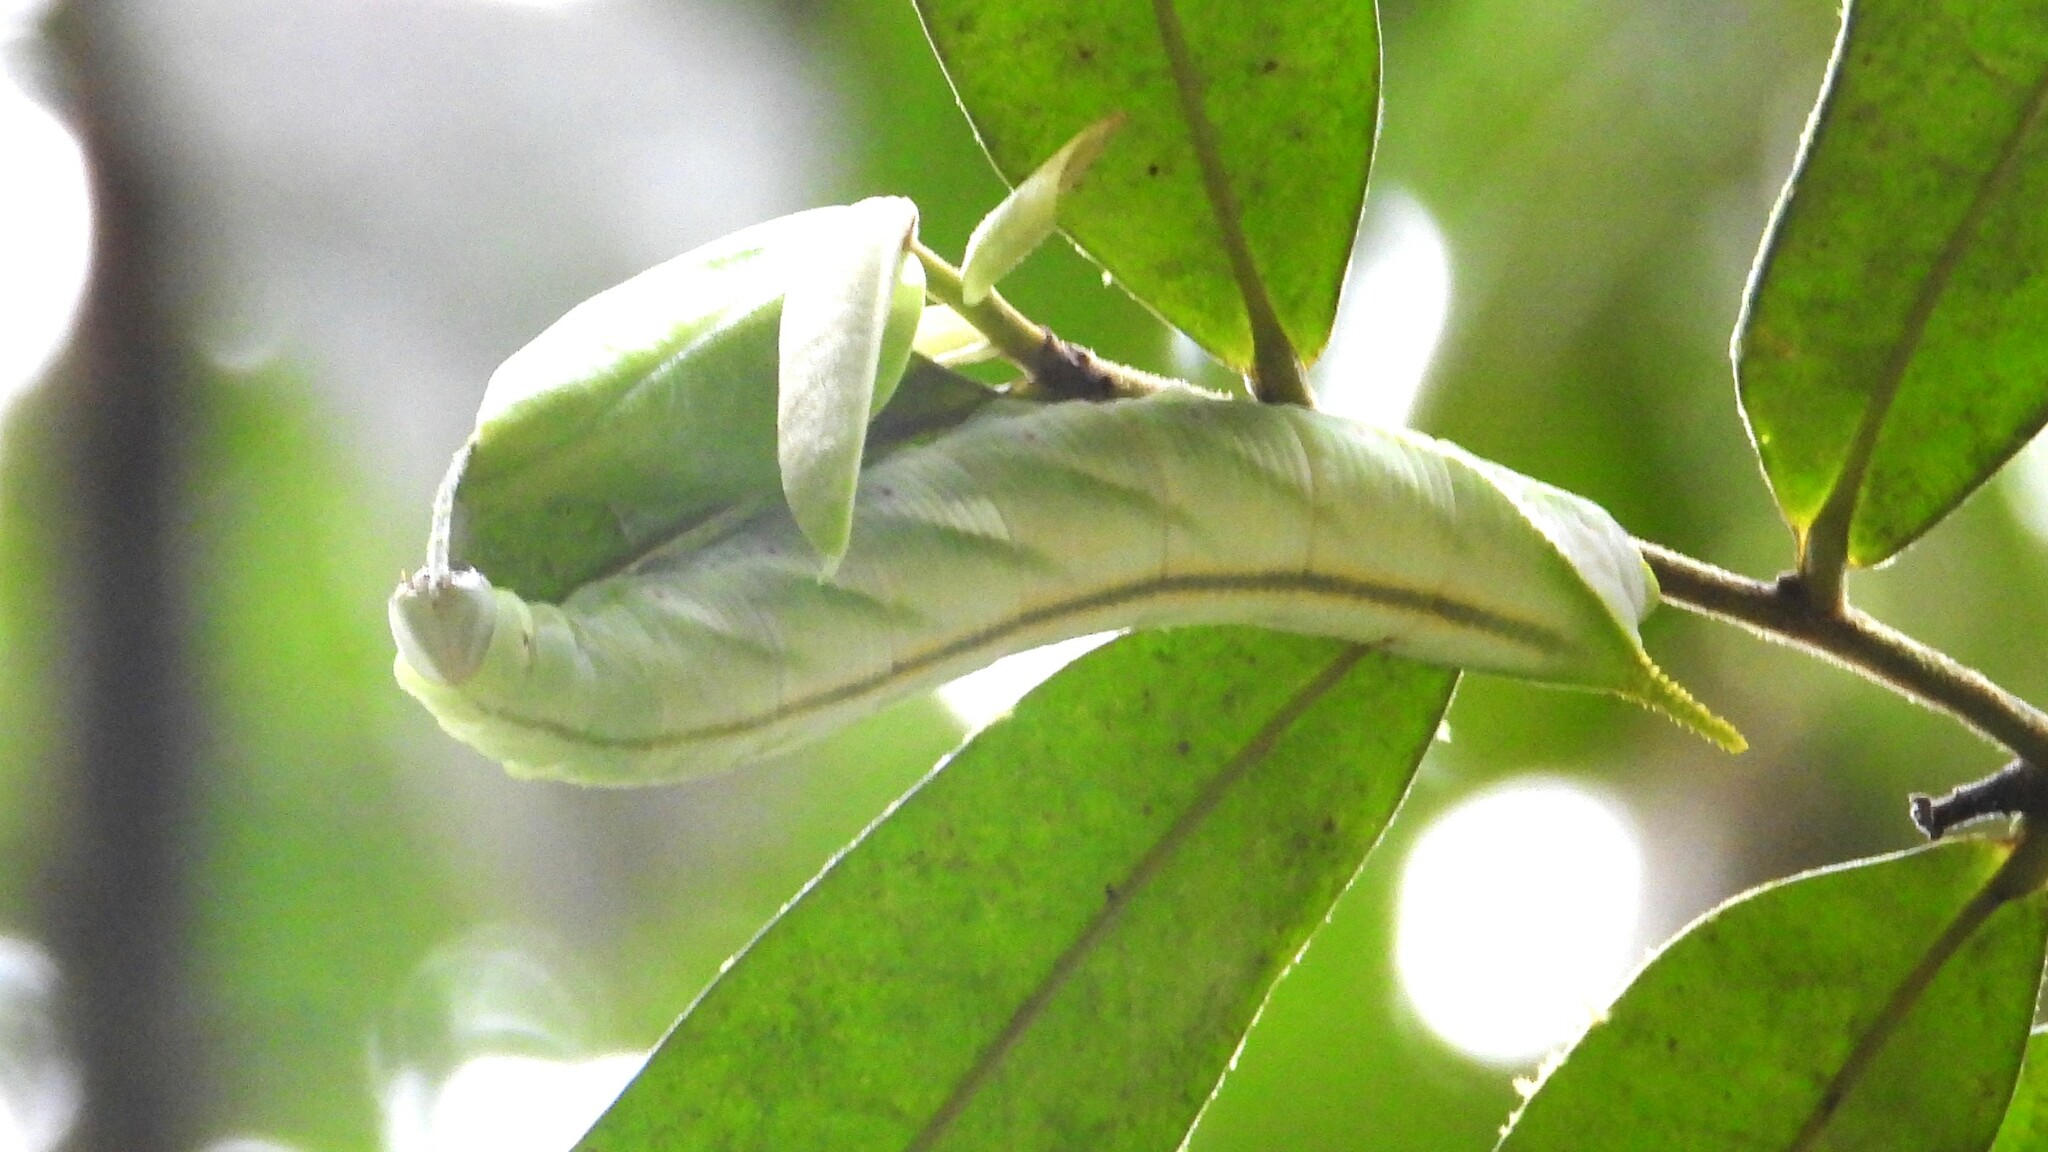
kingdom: Animalia
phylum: Arthropoda
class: Insecta
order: Lepidoptera
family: Sphingidae
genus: Cocytius
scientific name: Cocytius duponchel
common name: Duponchel's sphinx
